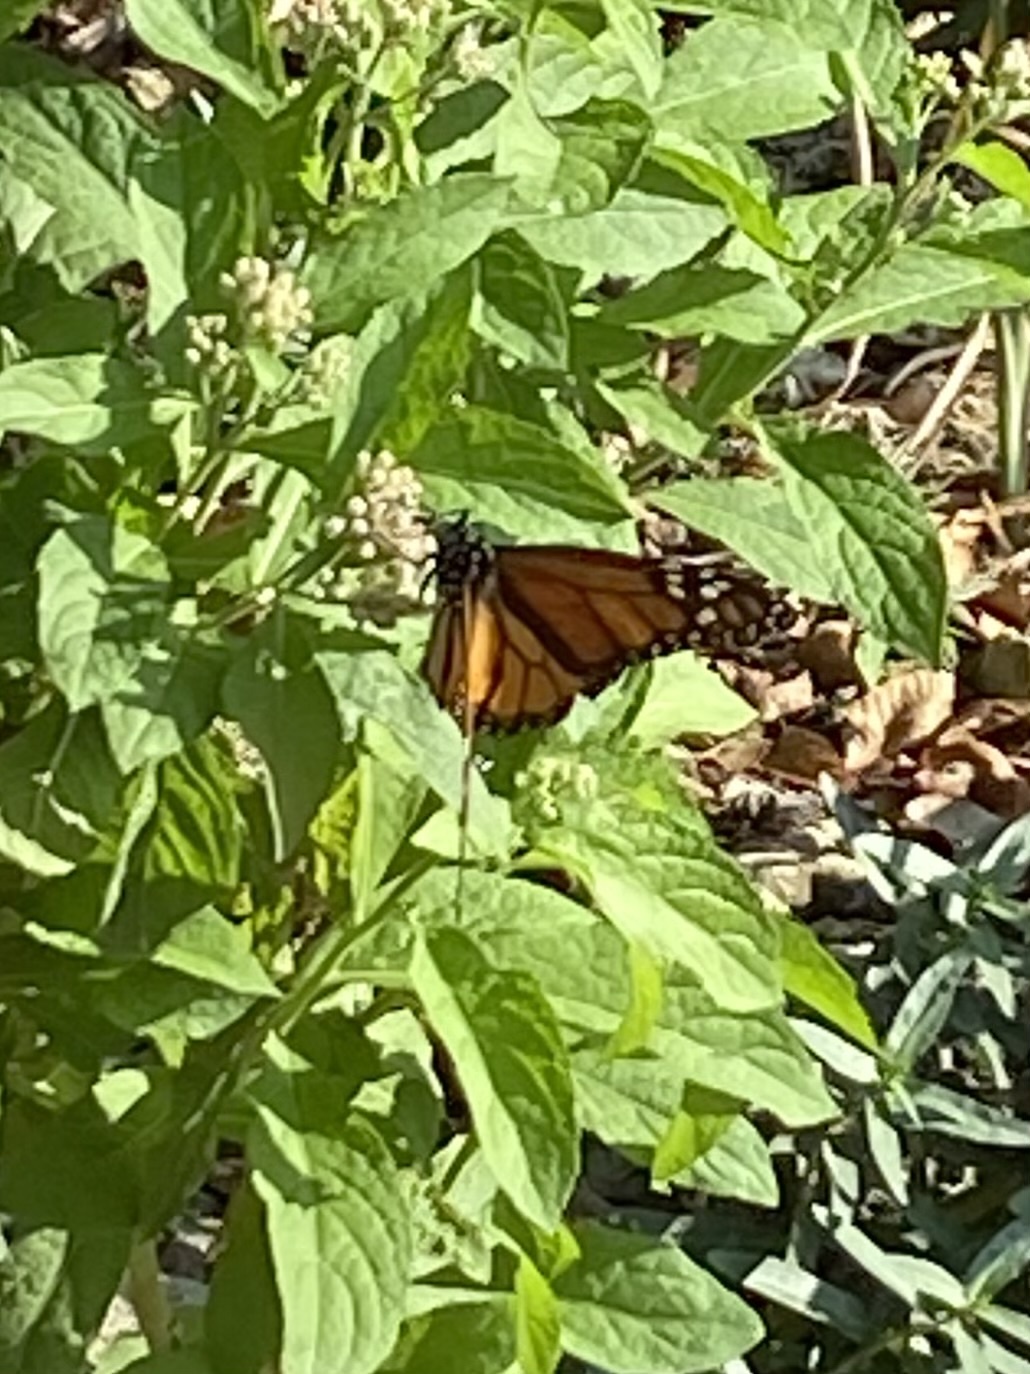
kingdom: Animalia
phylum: Arthropoda
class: Insecta
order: Lepidoptera
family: Nymphalidae
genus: Danaus
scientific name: Danaus plexippus
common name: Monarch
